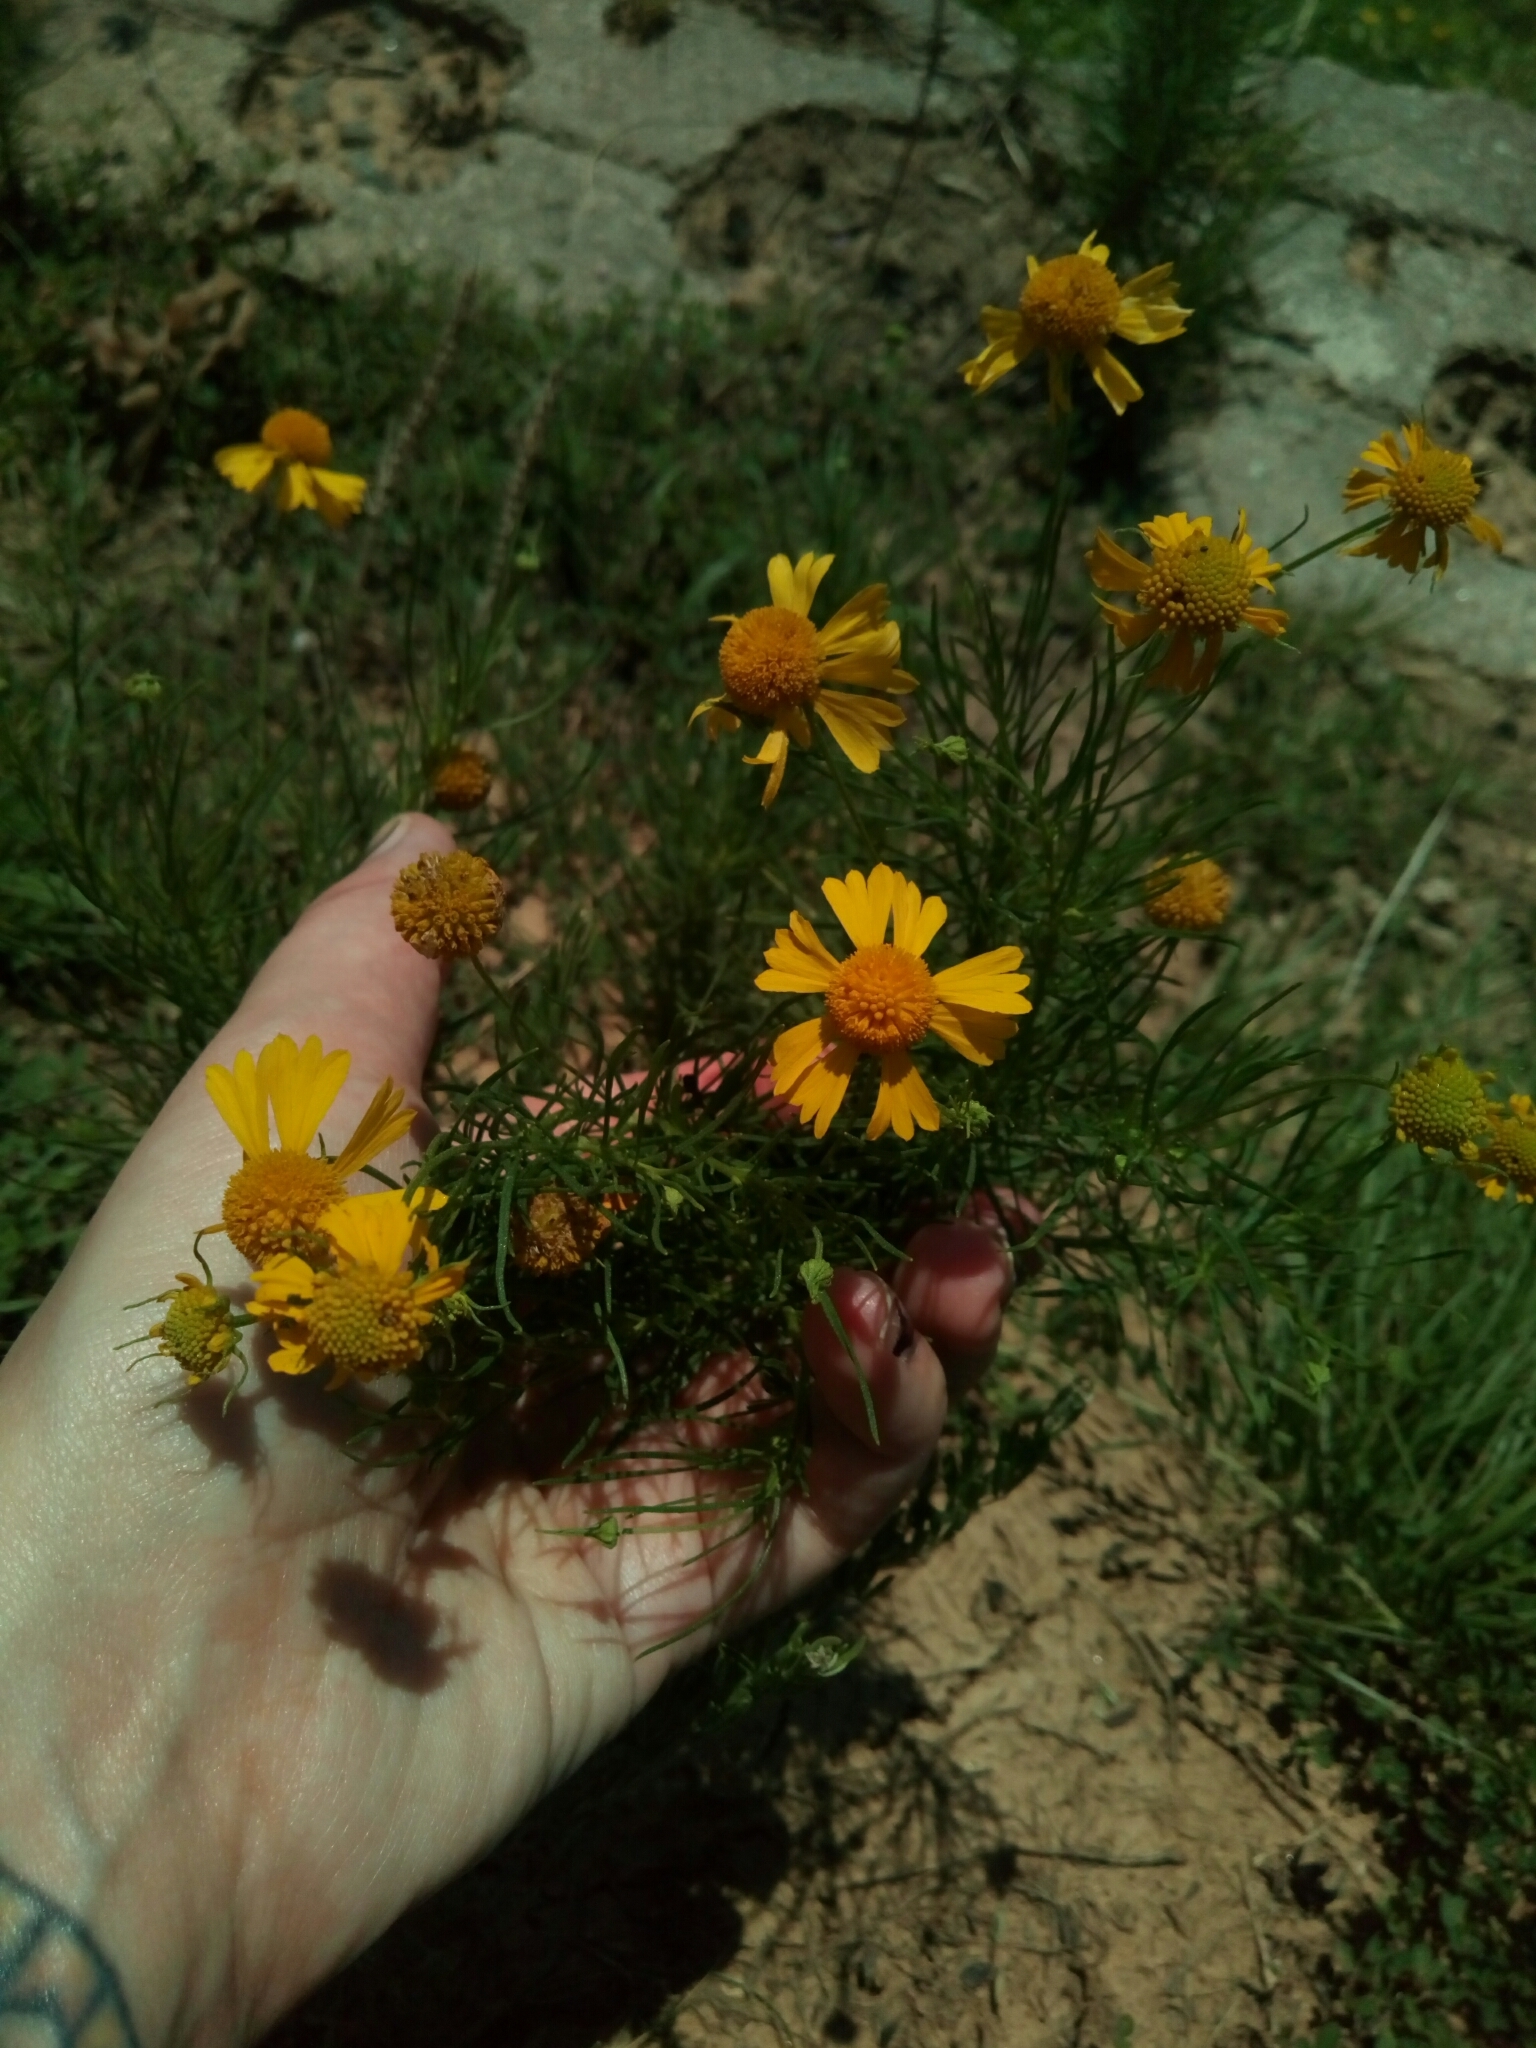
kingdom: Plantae
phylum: Tracheophyta
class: Magnoliopsida
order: Asterales
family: Asteraceae
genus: Helenium
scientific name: Helenium amarum
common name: Bitter sneezeweed
